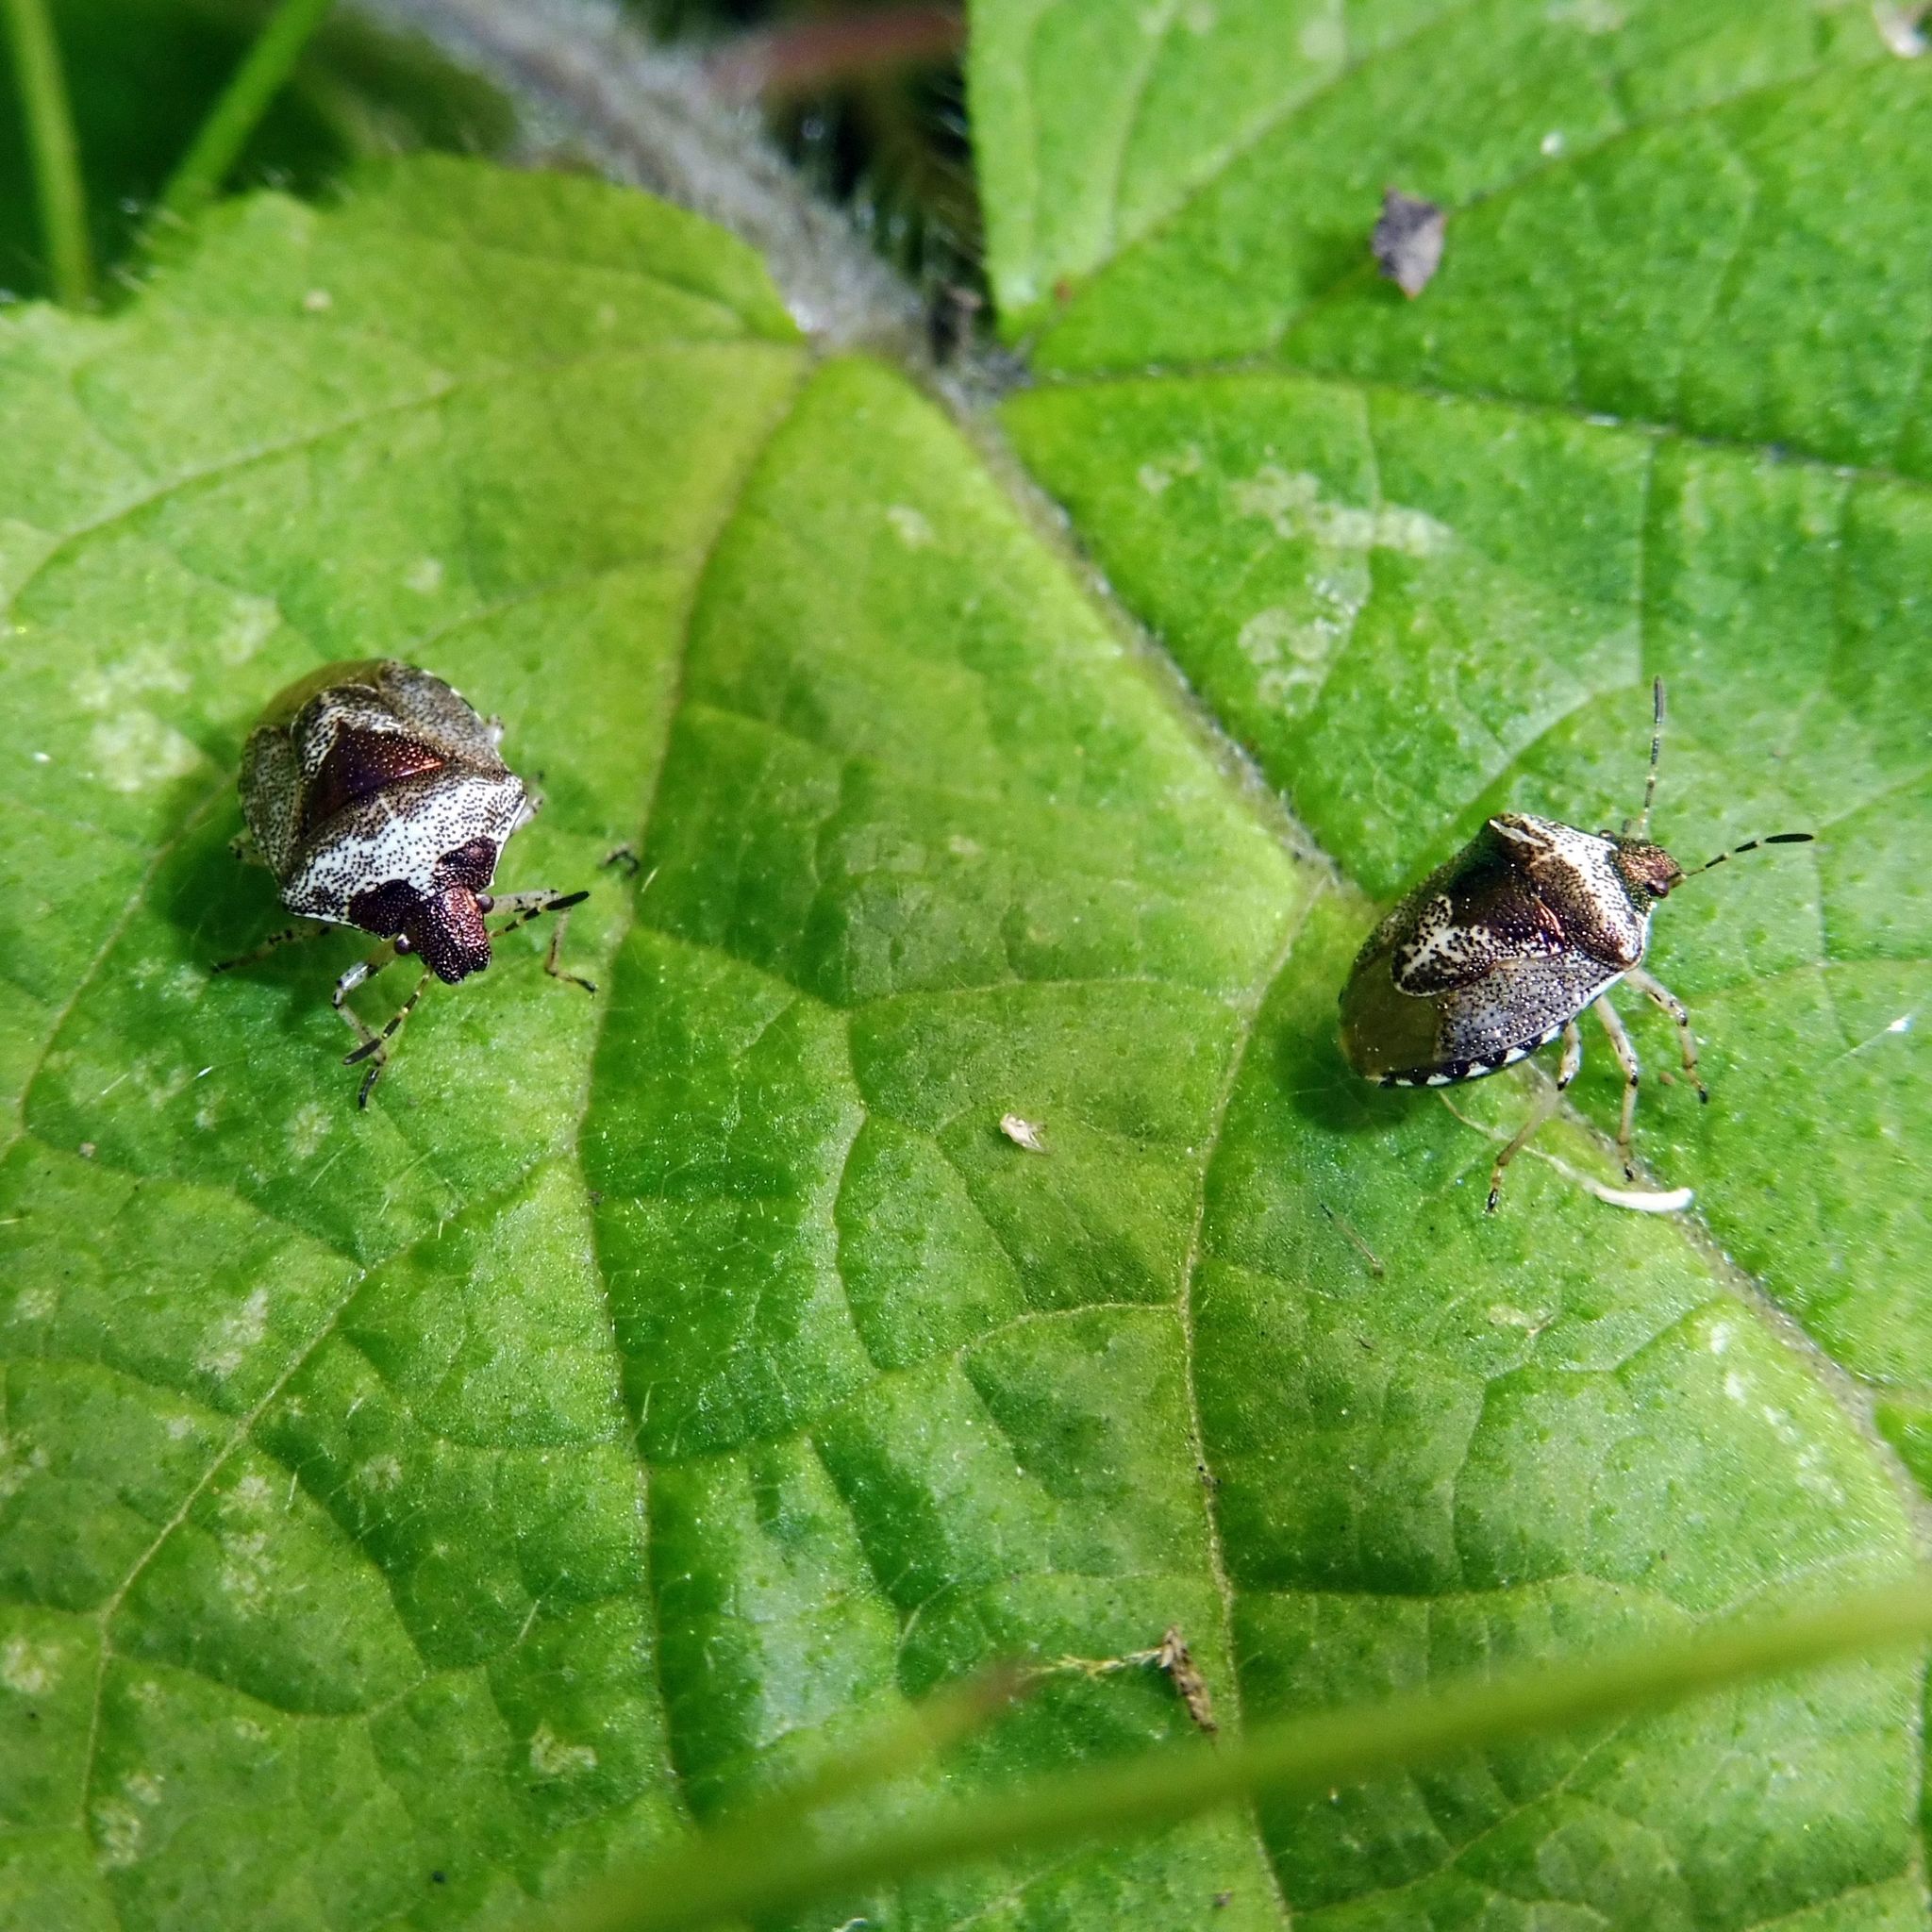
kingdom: Animalia
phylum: Arthropoda
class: Insecta
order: Hemiptera
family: Pentatomidae
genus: Eysarcoris
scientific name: Eysarcoris venustissimus
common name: Woundwort shieldbug
